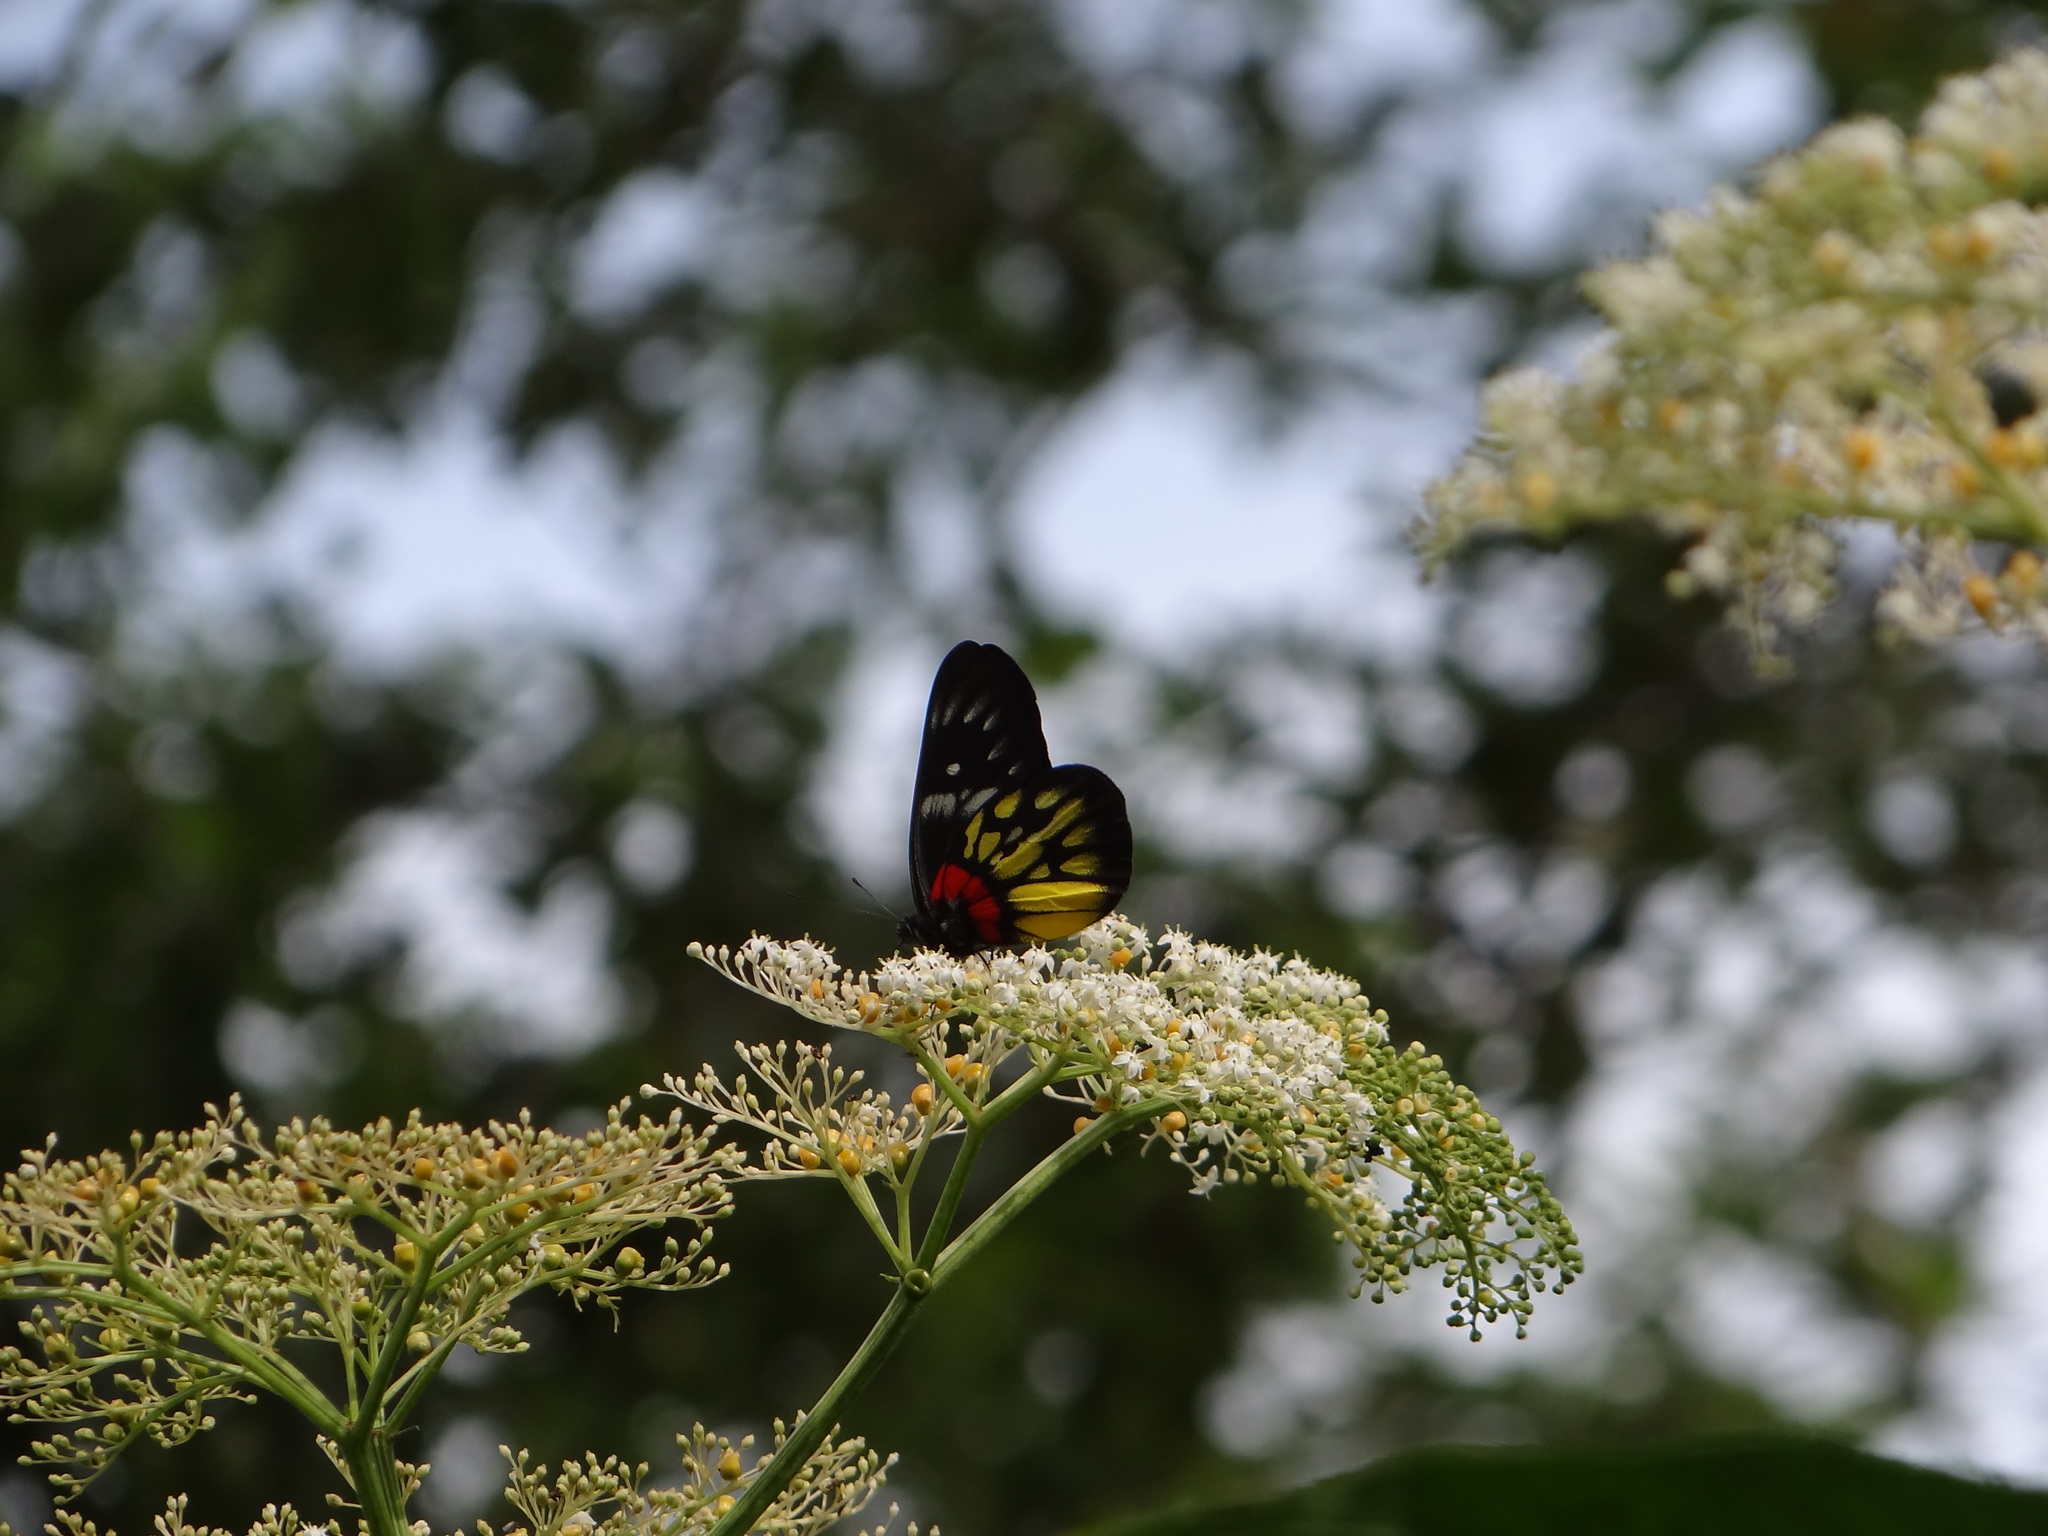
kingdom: Animalia
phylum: Arthropoda
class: Insecta
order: Lepidoptera
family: Pieridae
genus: Delias
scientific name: Delias pasithoe
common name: Red-base jezebel
